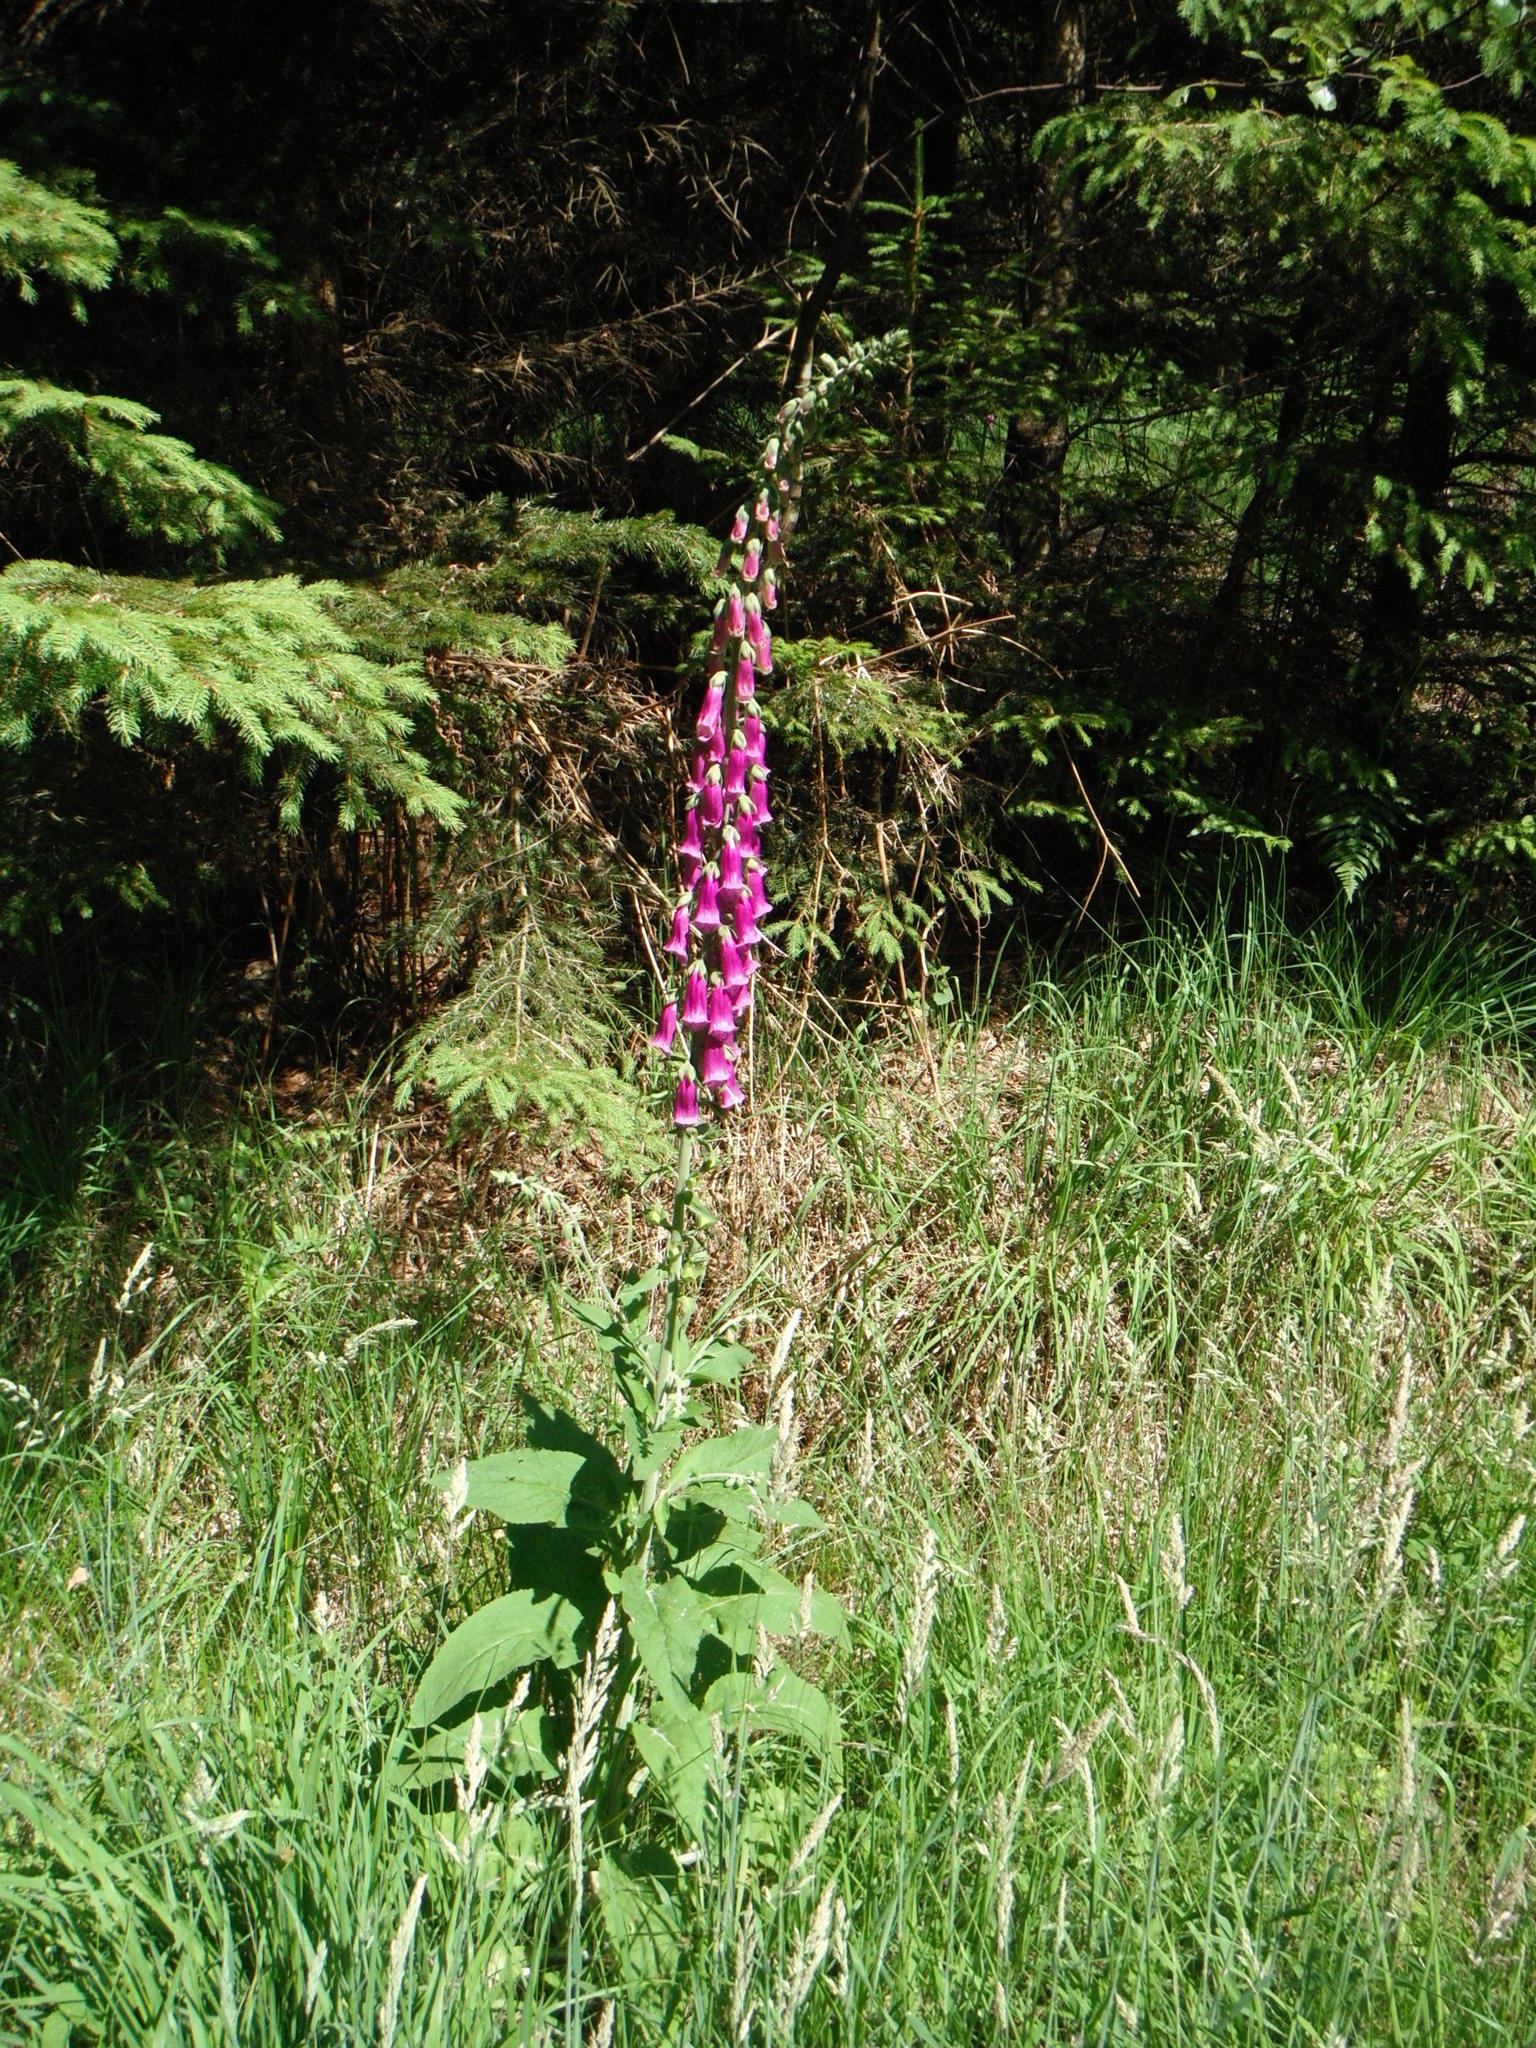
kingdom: Plantae
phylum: Tracheophyta
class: Magnoliopsida
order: Lamiales
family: Plantaginaceae
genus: Digitalis
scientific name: Digitalis purpurea
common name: Foxglove
